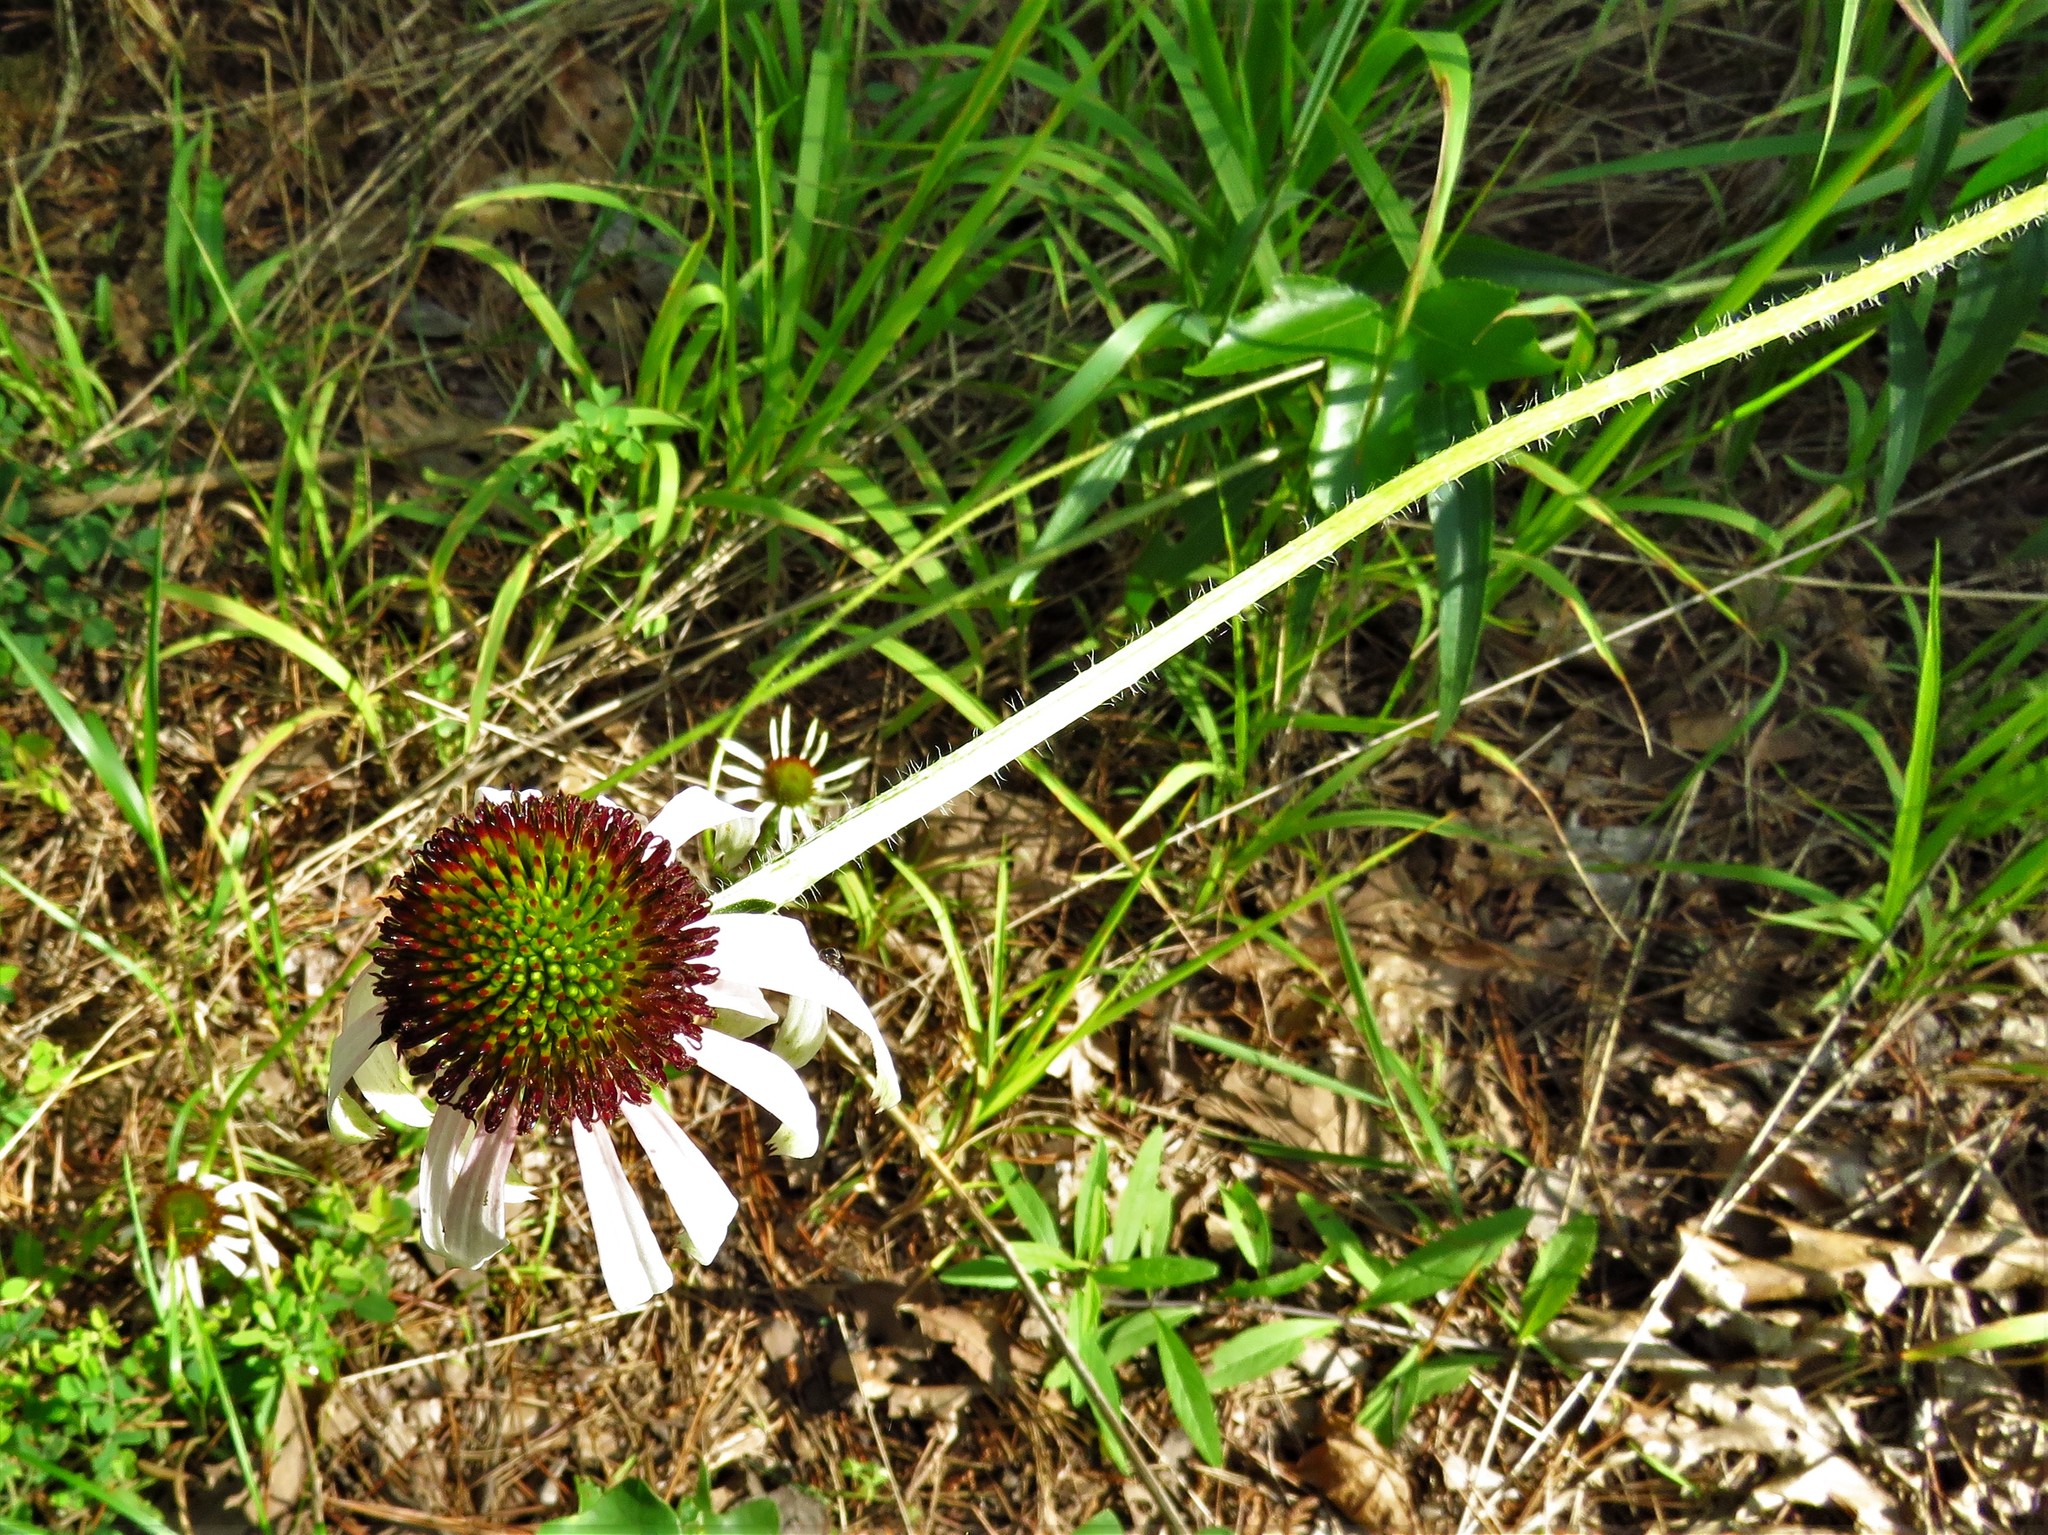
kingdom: Plantae
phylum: Tracheophyta
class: Magnoliopsida
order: Asterales
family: Asteraceae
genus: Echinacea
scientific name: Echinacea sanguinea
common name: Sanguine purple-coneflower
